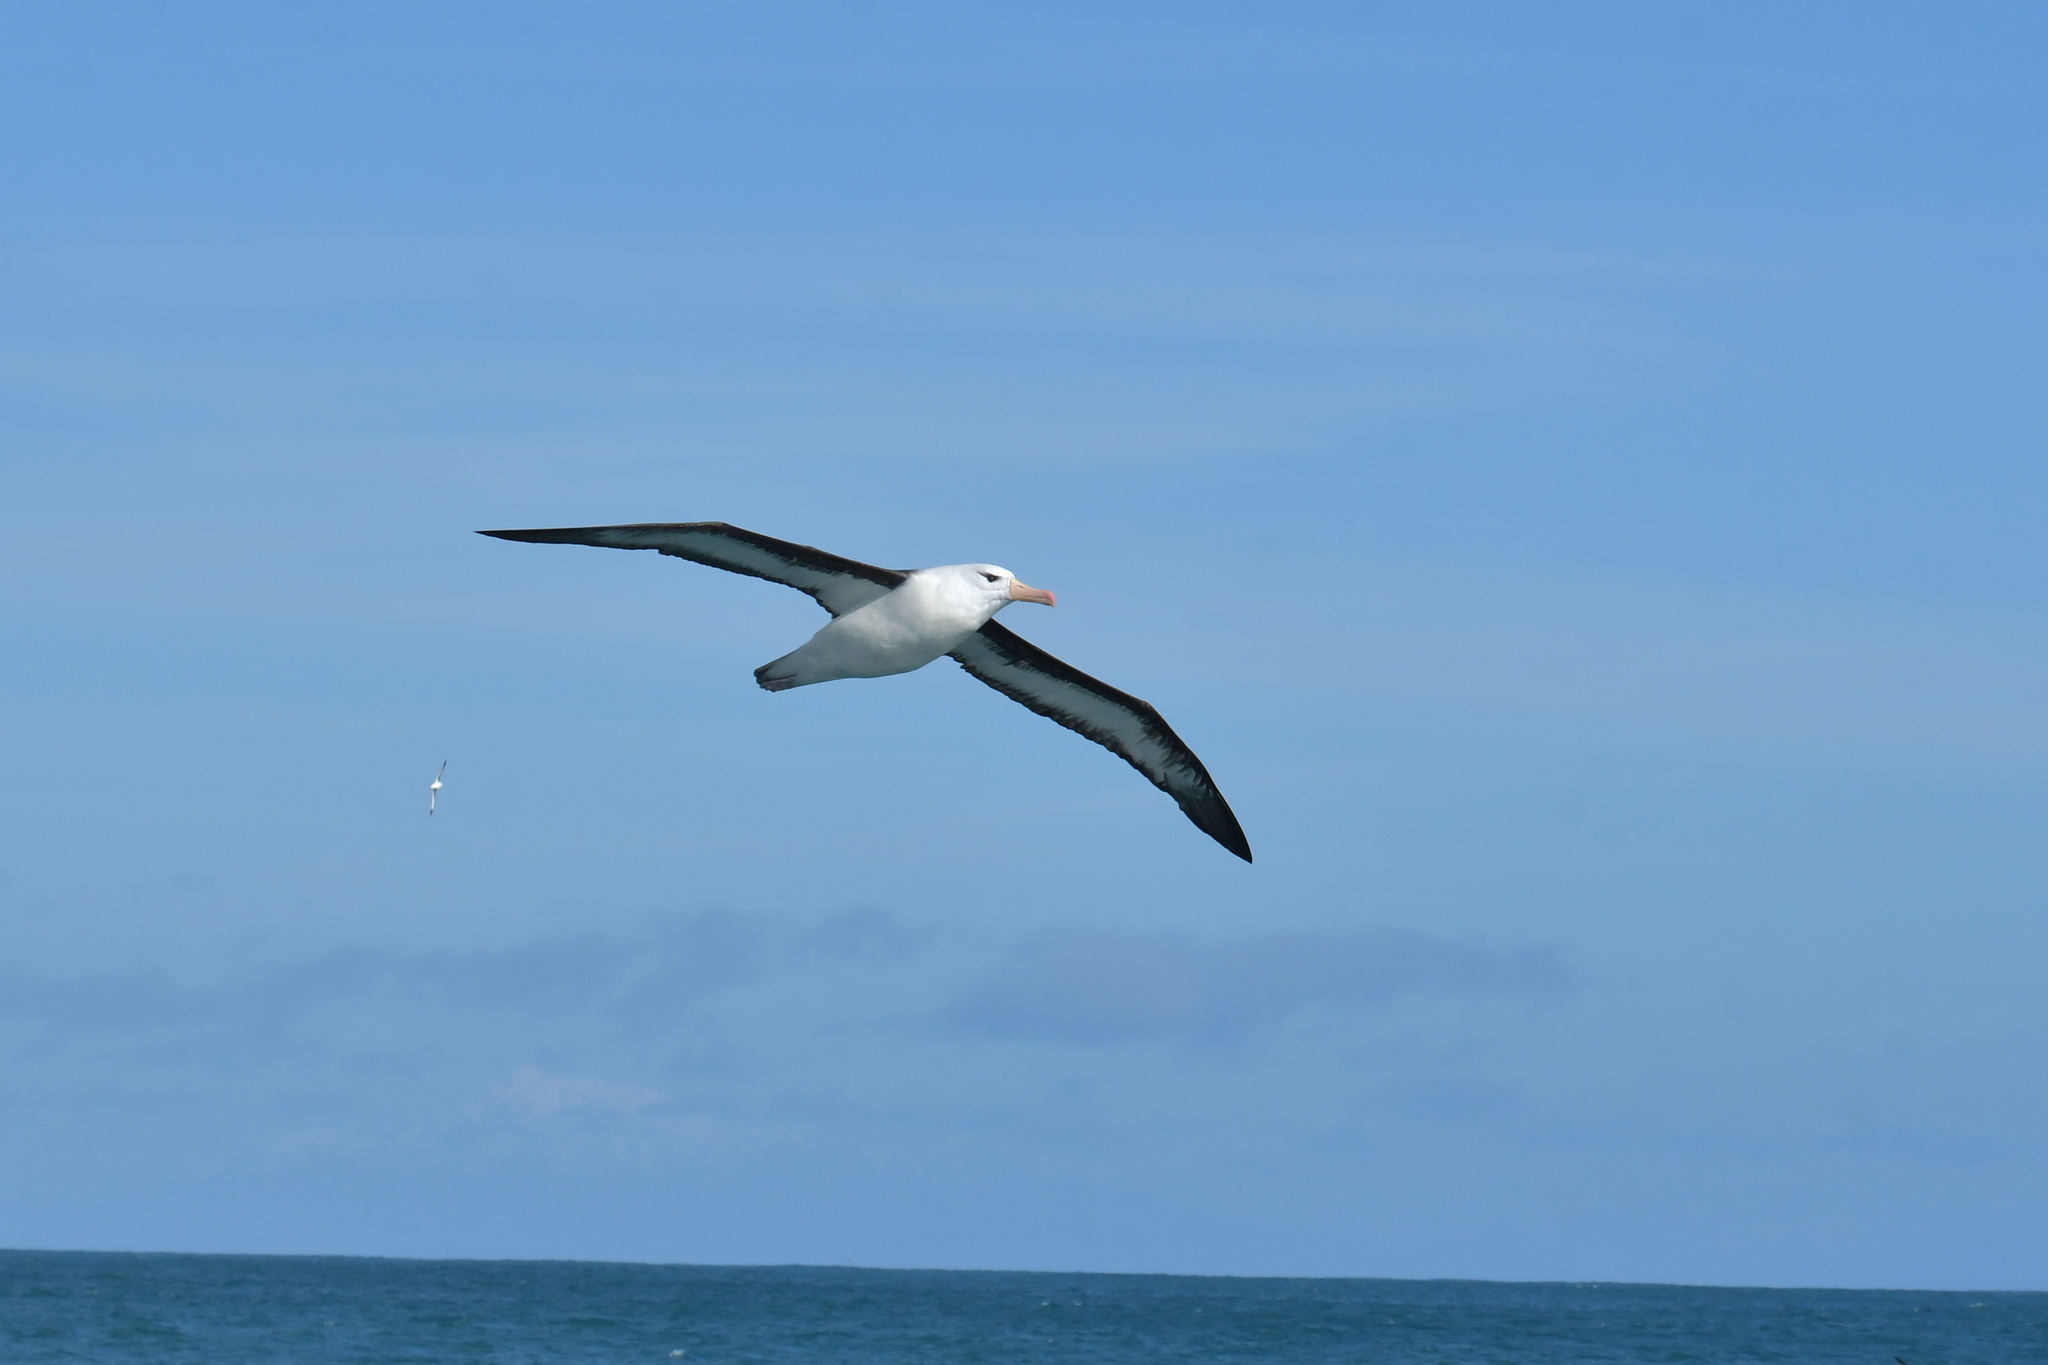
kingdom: Animalia
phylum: Chordata
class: Aves
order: Procellariiformes
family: Diomedeidae
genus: Thalassarche
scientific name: Thalassarche melanophris
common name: Black-browed albatross
